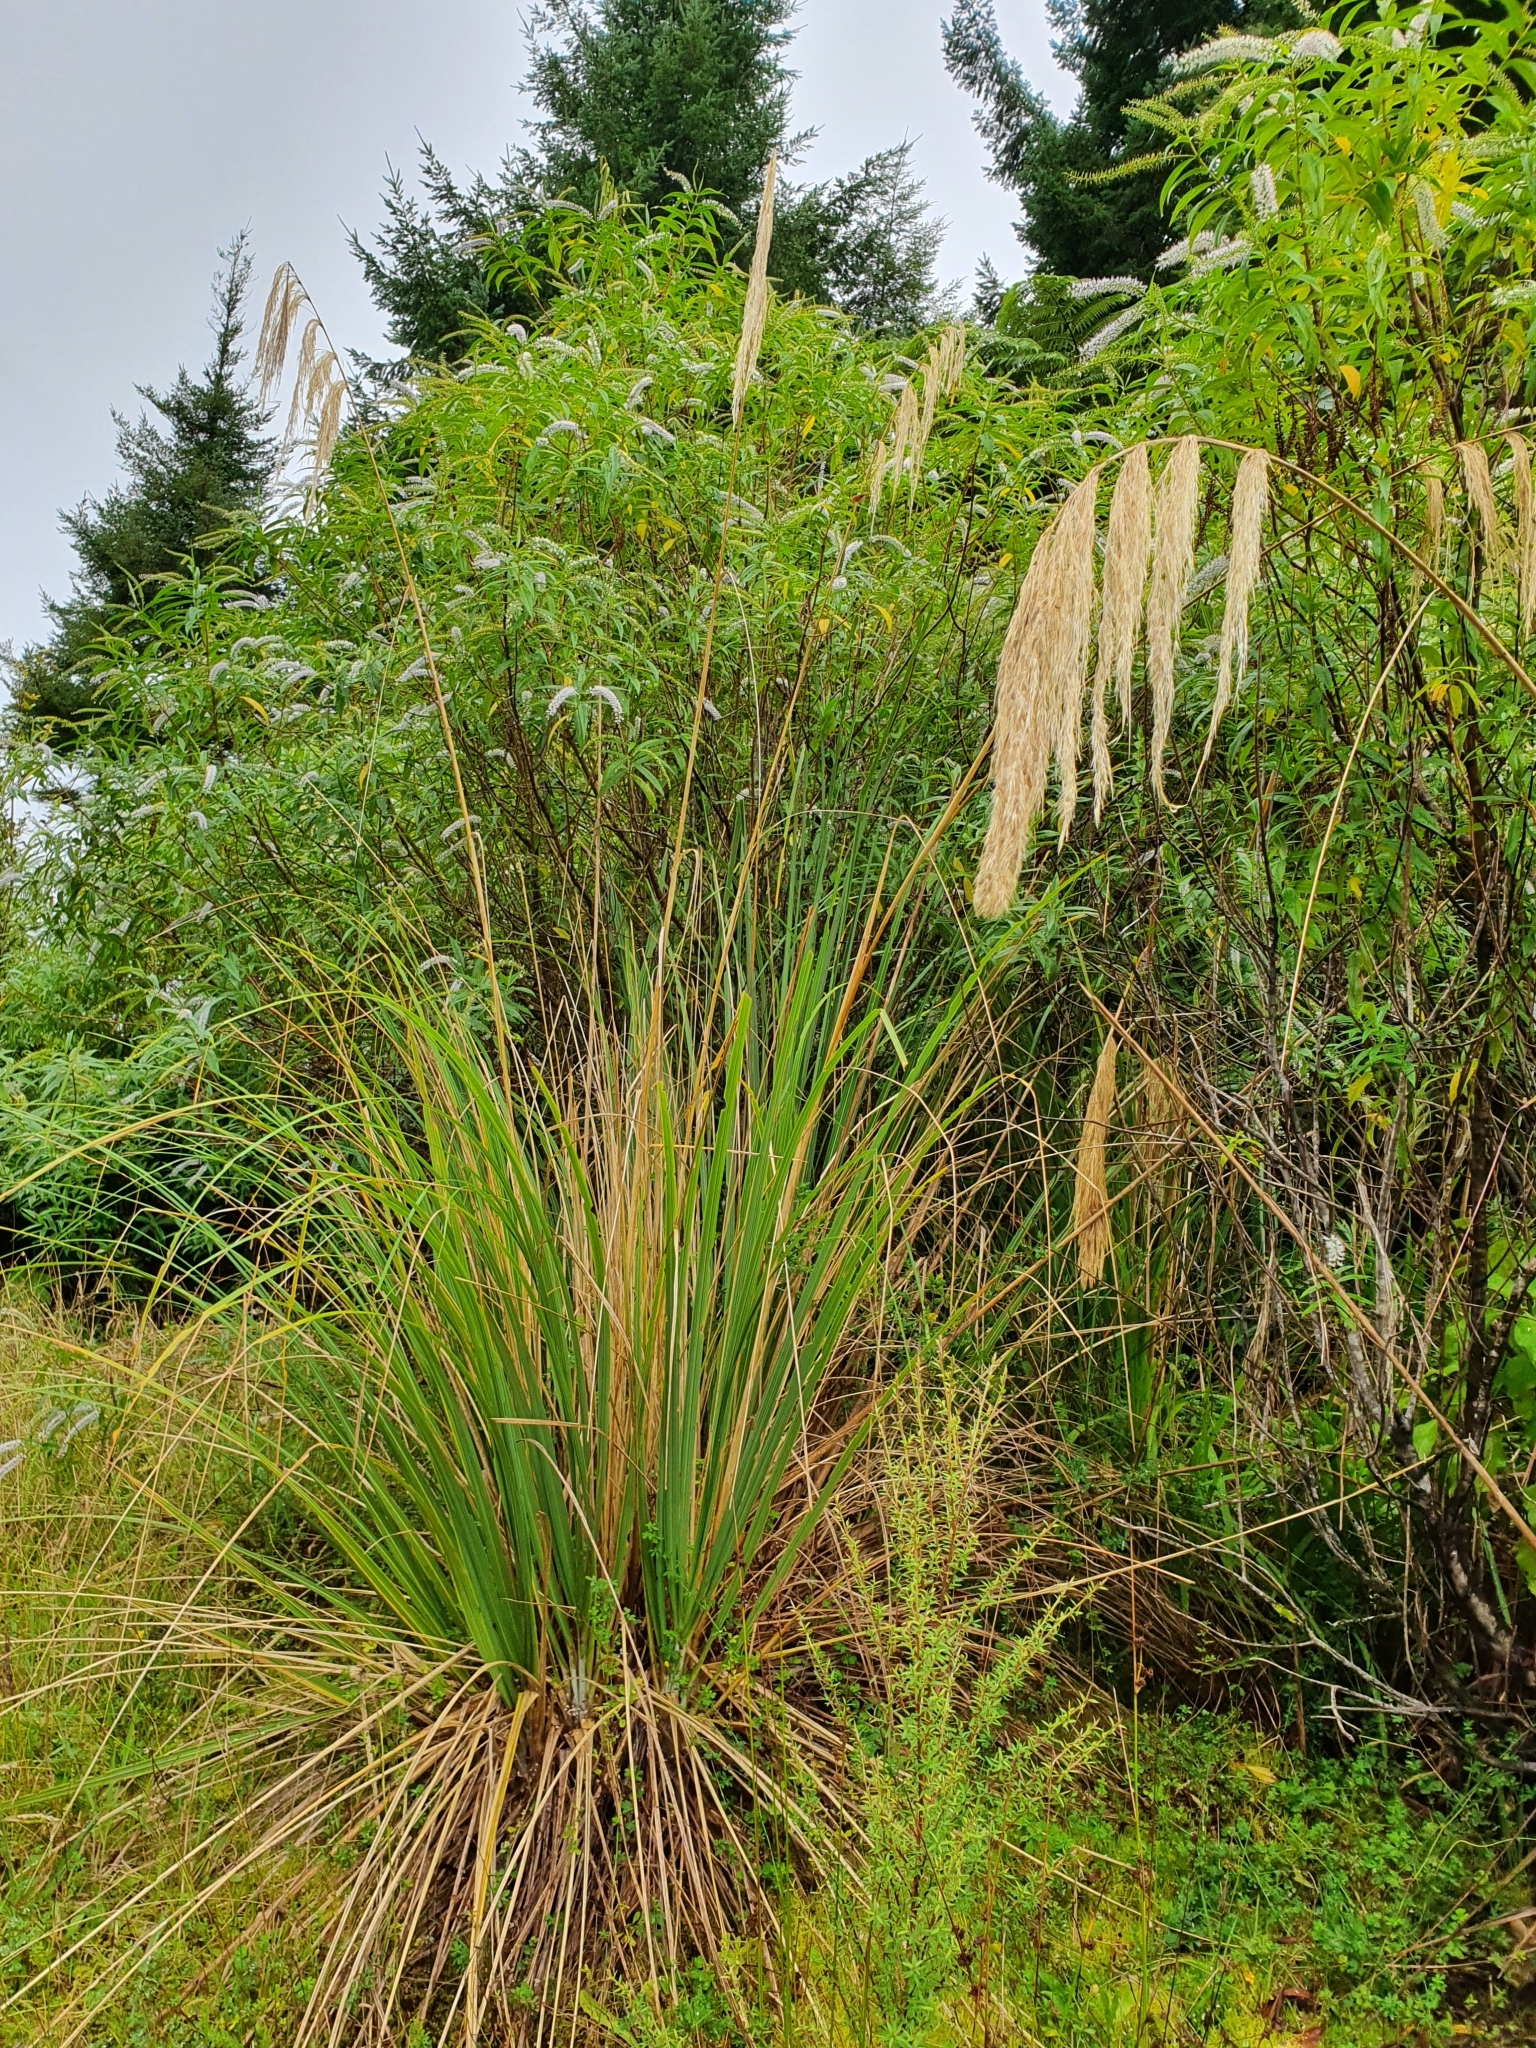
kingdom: Plantae
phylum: Tracheophyta
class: Liliopsida
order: Poales
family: Poaceae
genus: Austroderia
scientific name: Austroderia fulvida
